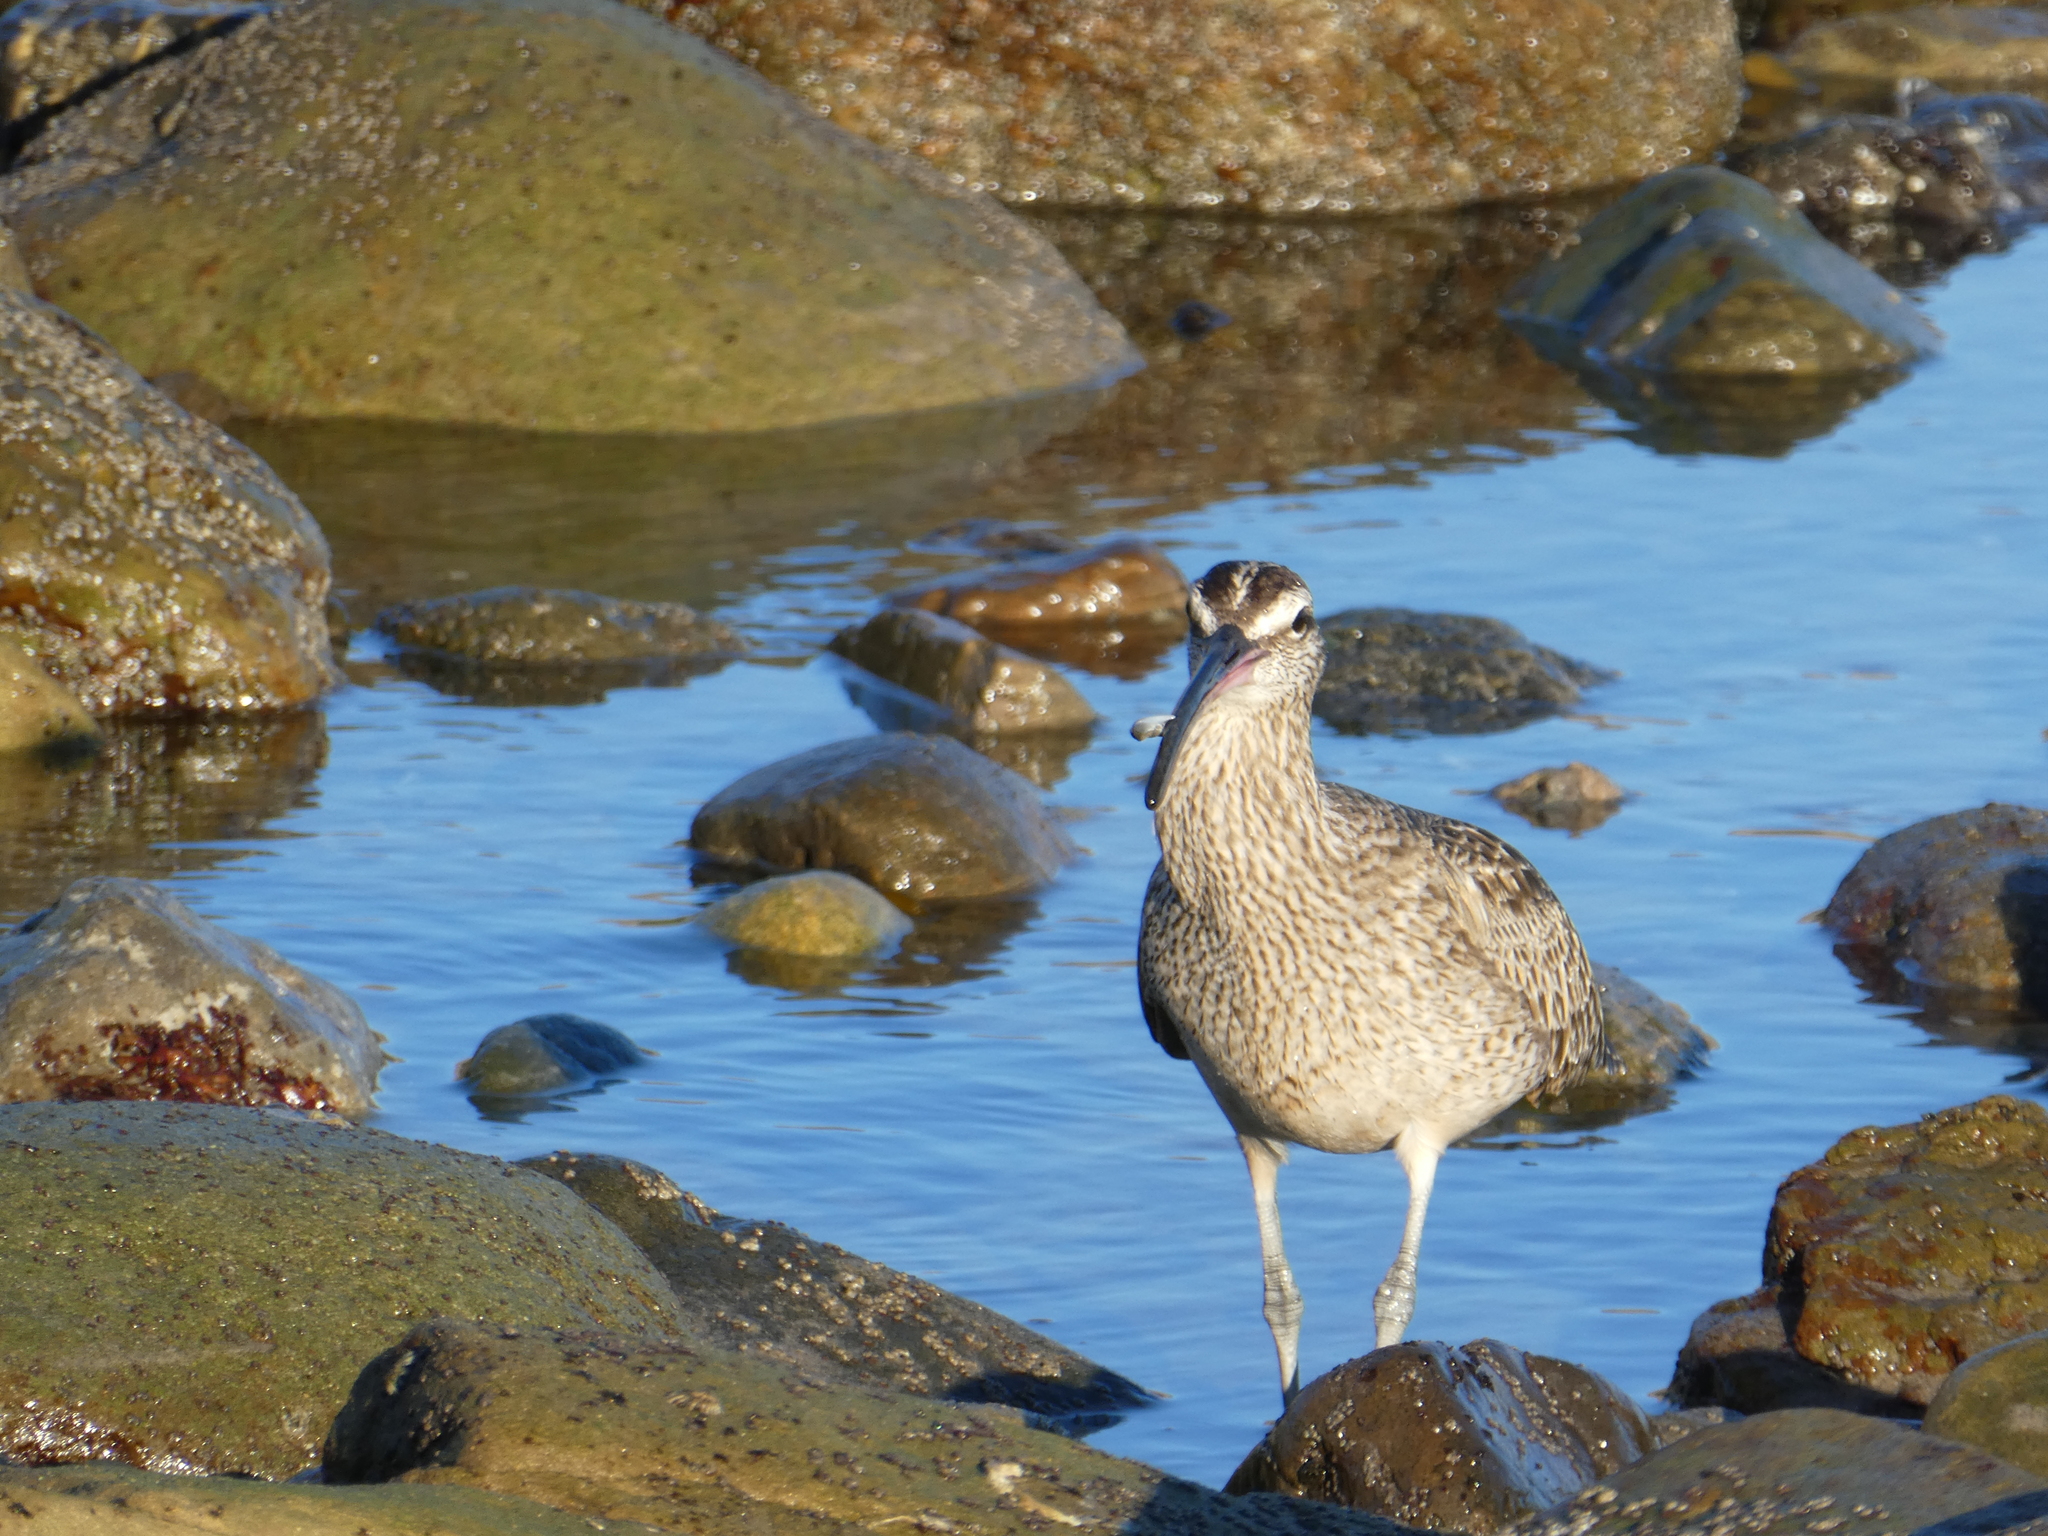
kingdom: Animalia
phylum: Chordata
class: Aves
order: Charadriiformes
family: Scolopacidae
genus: Numenius
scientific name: Numenius phaeopus
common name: Whimbrel
